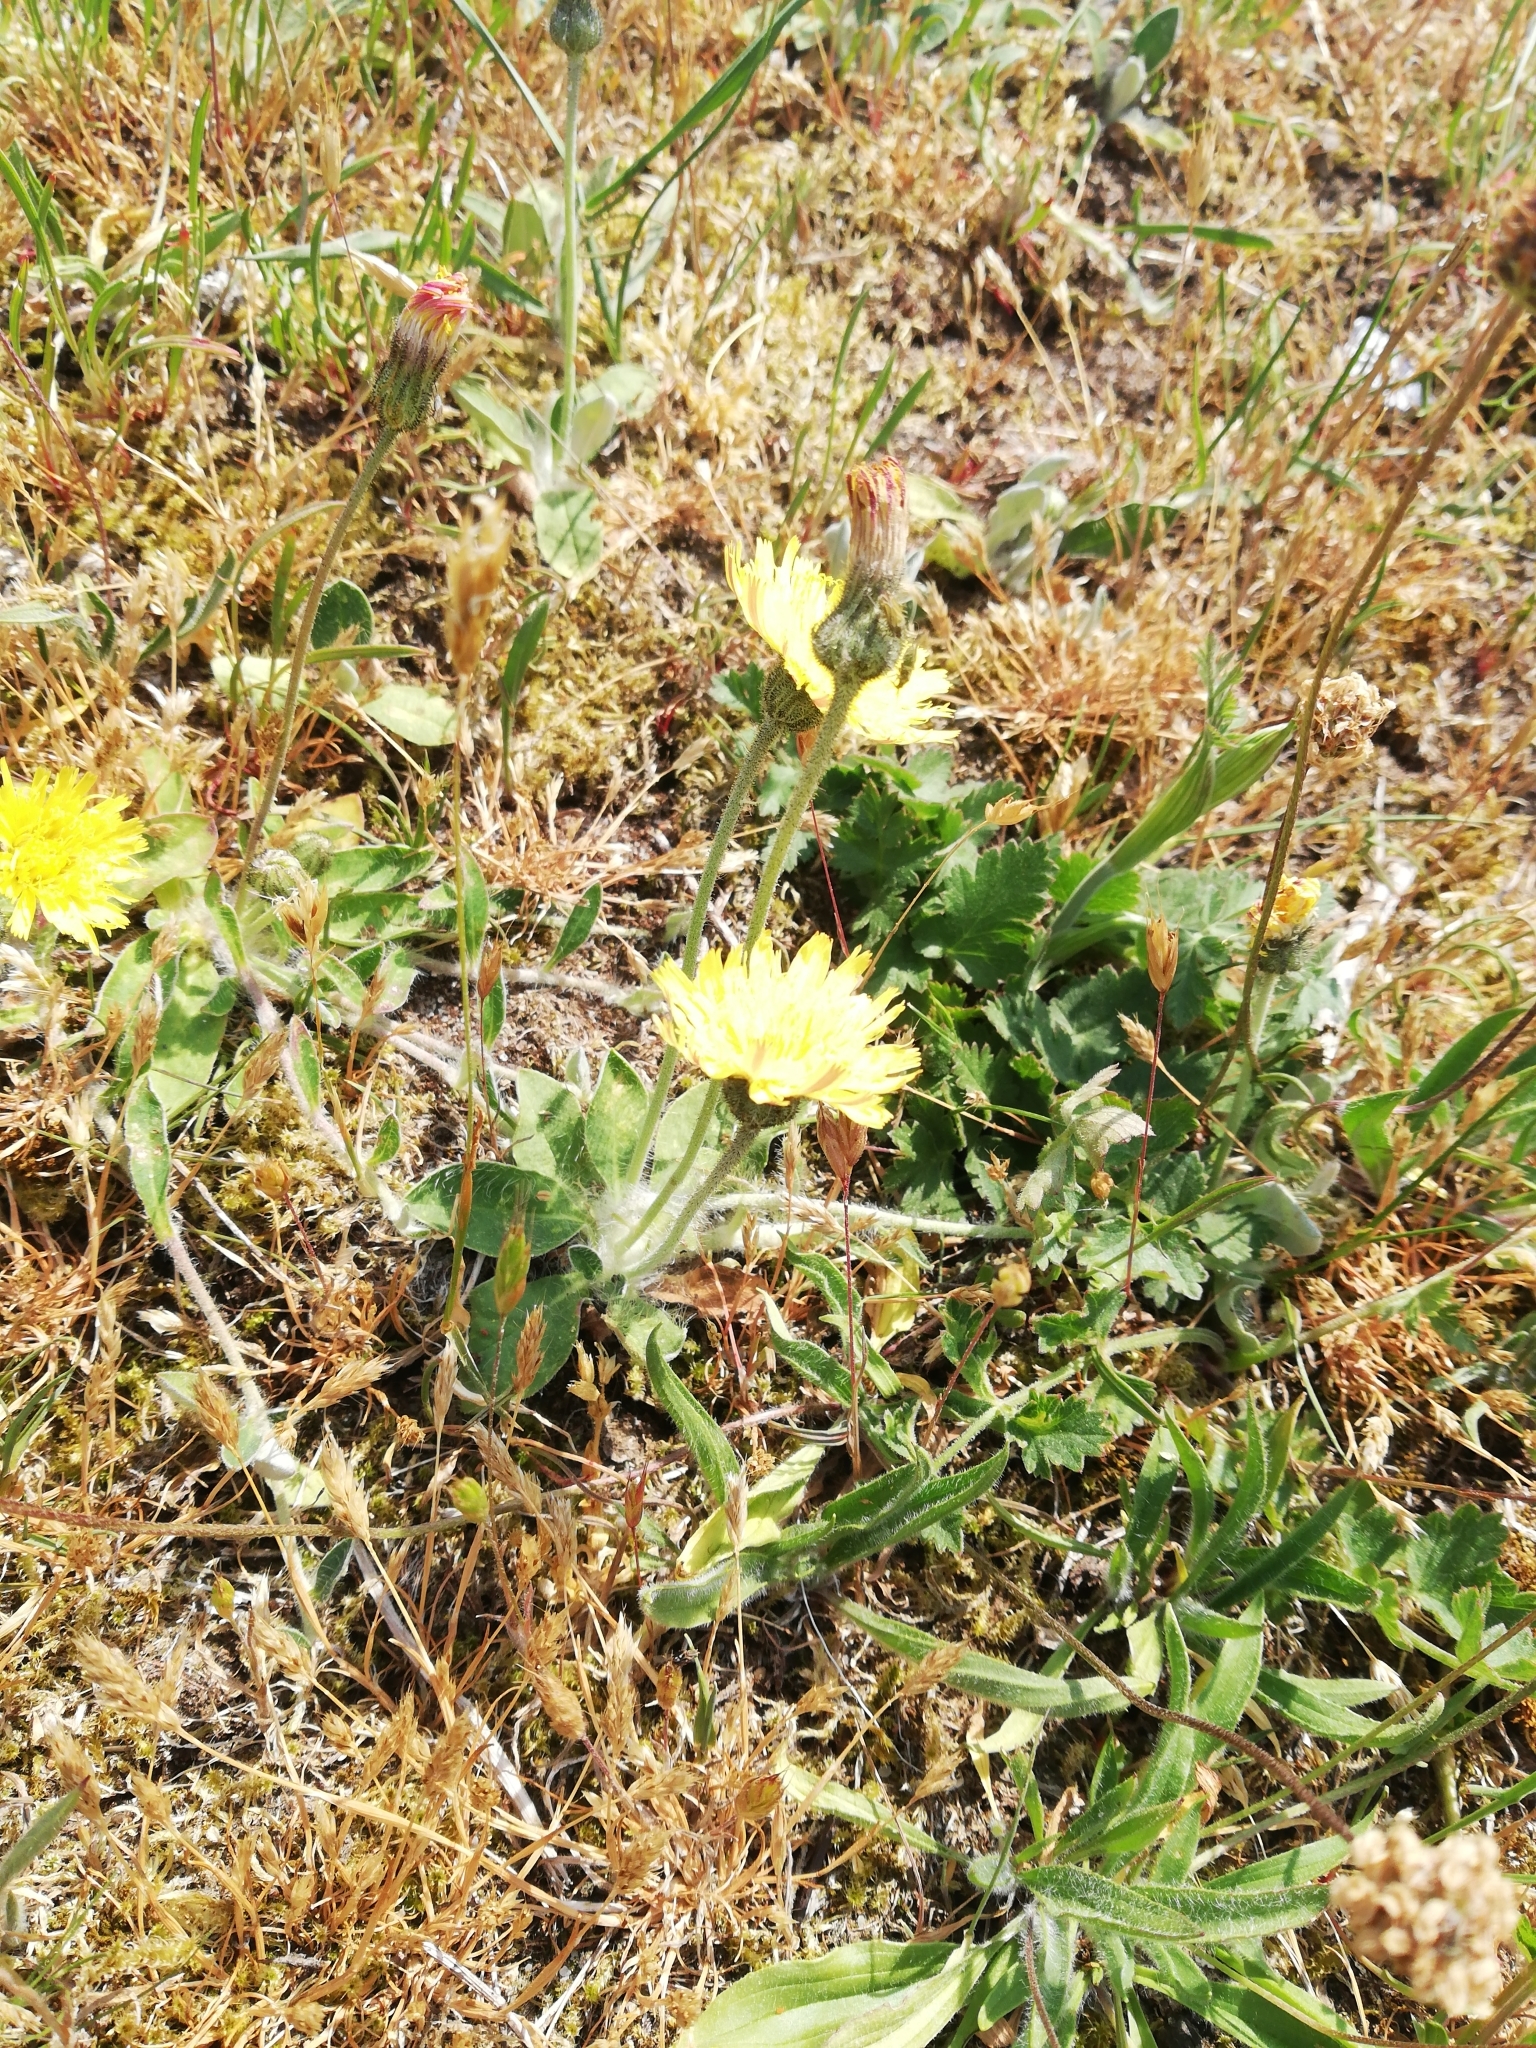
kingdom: Plantae
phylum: Tracheophyta
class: Magnoliopsida
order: Asterales
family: Asteraceae
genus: Pilosella
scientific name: Pilosella officinarum
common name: Mouse-ear hawkweed
